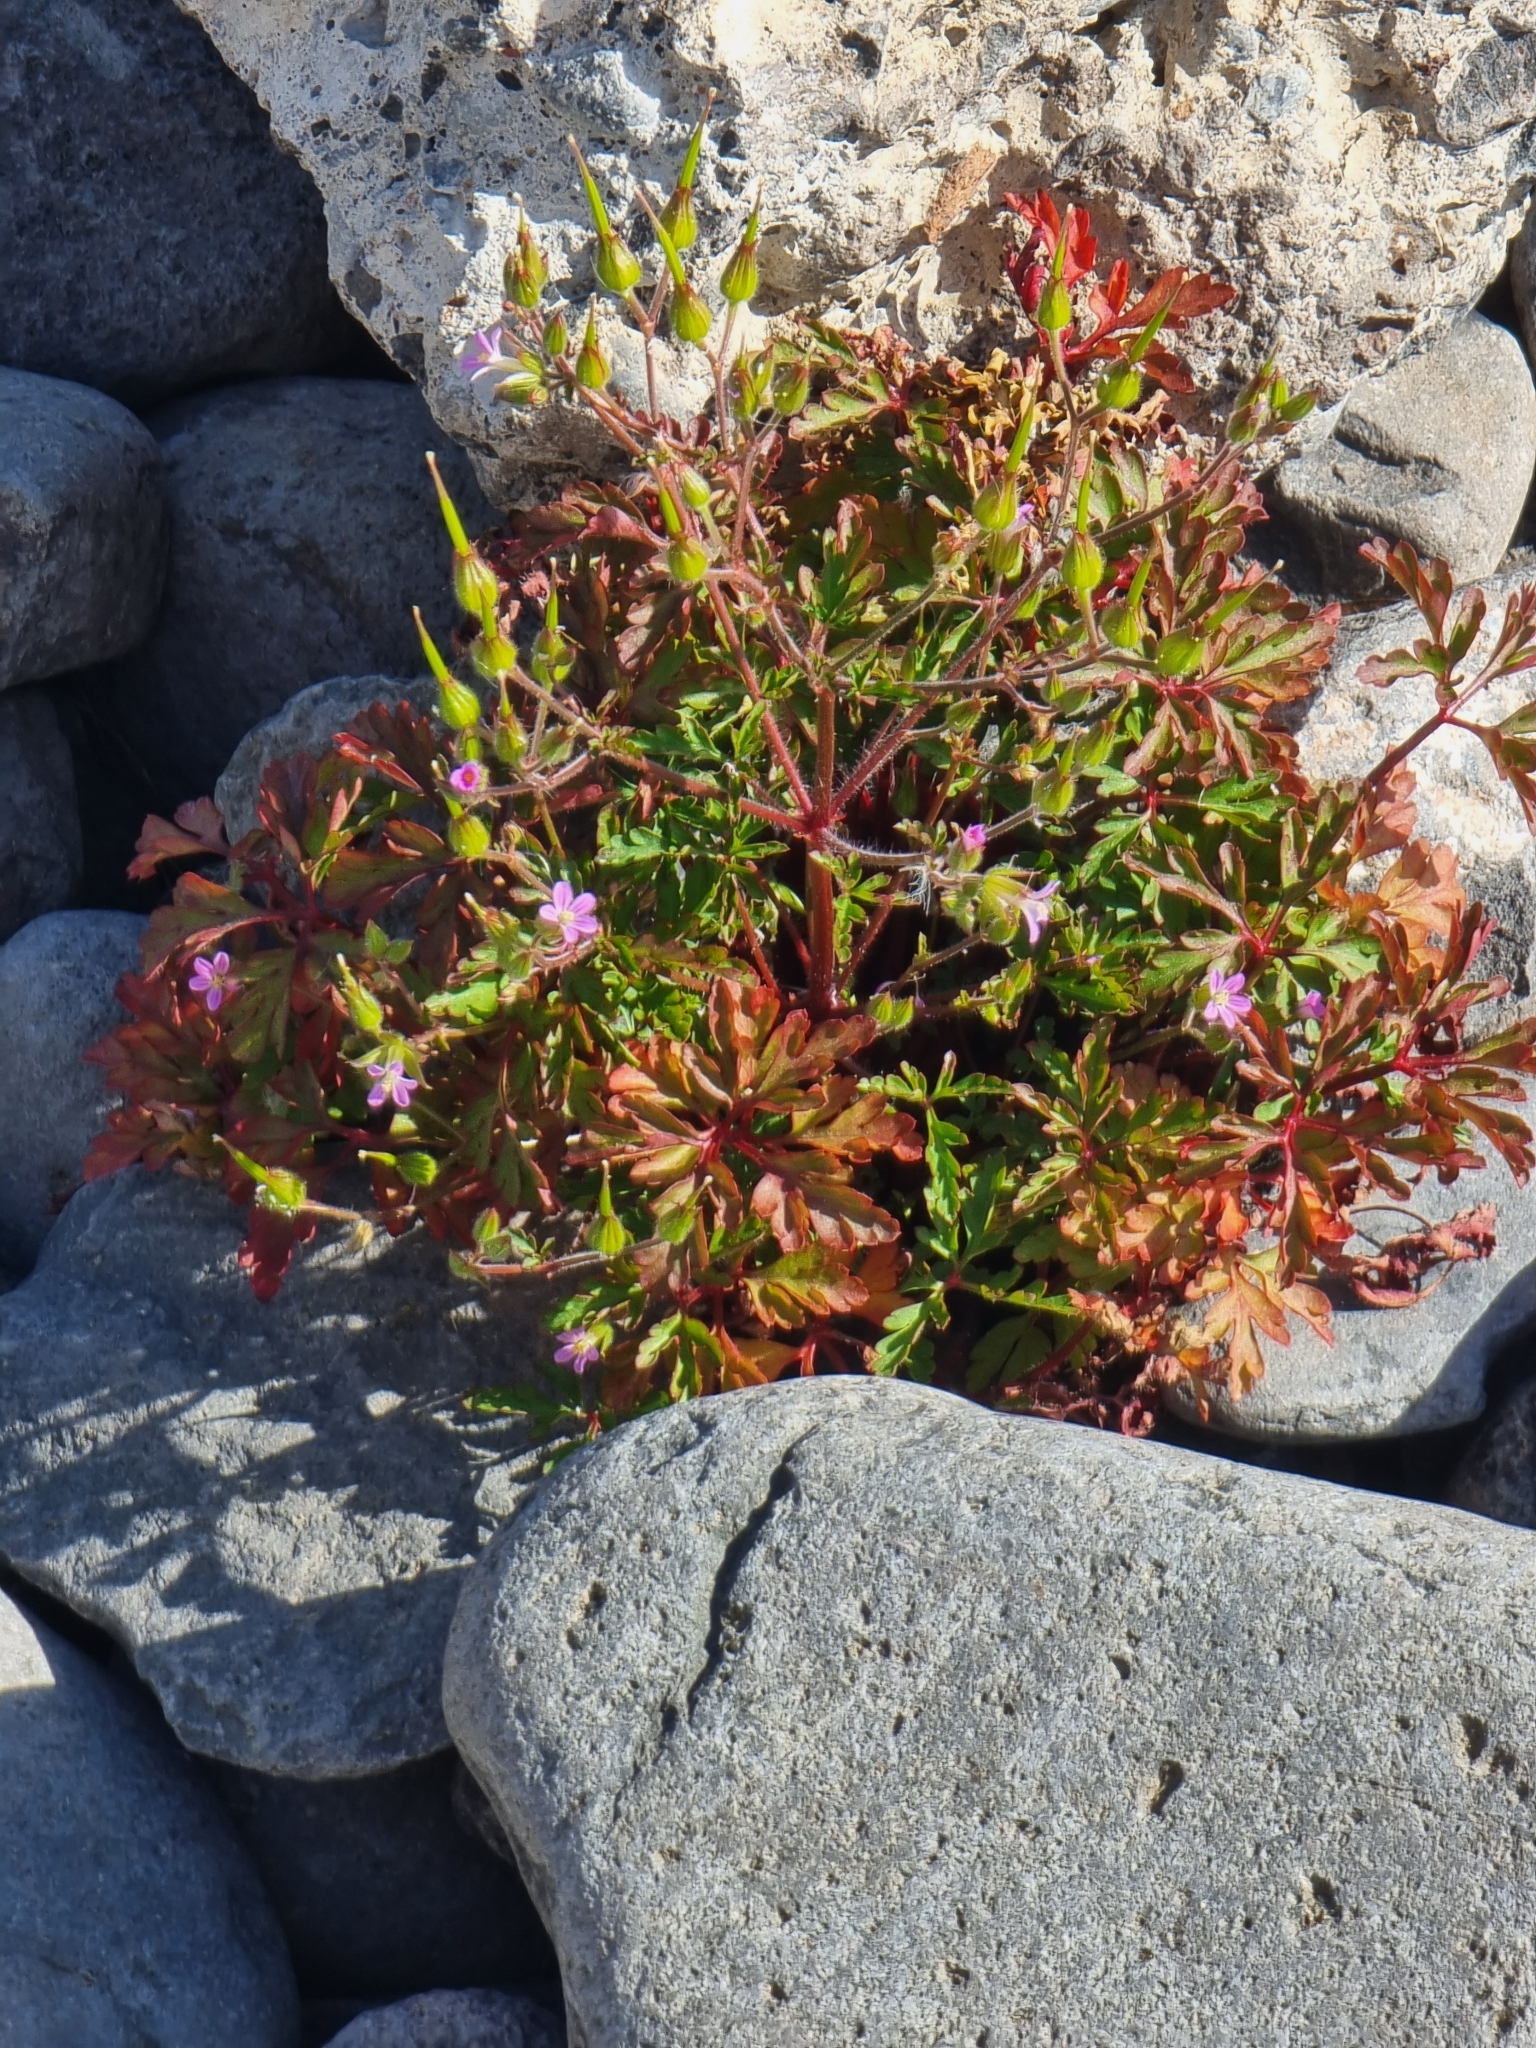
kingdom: Plantae
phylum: Tracheophyta
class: Magnoliopsida
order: Geraniales
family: Geraniaceae
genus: Geranium
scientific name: Geranium purpureum
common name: Little-robin
